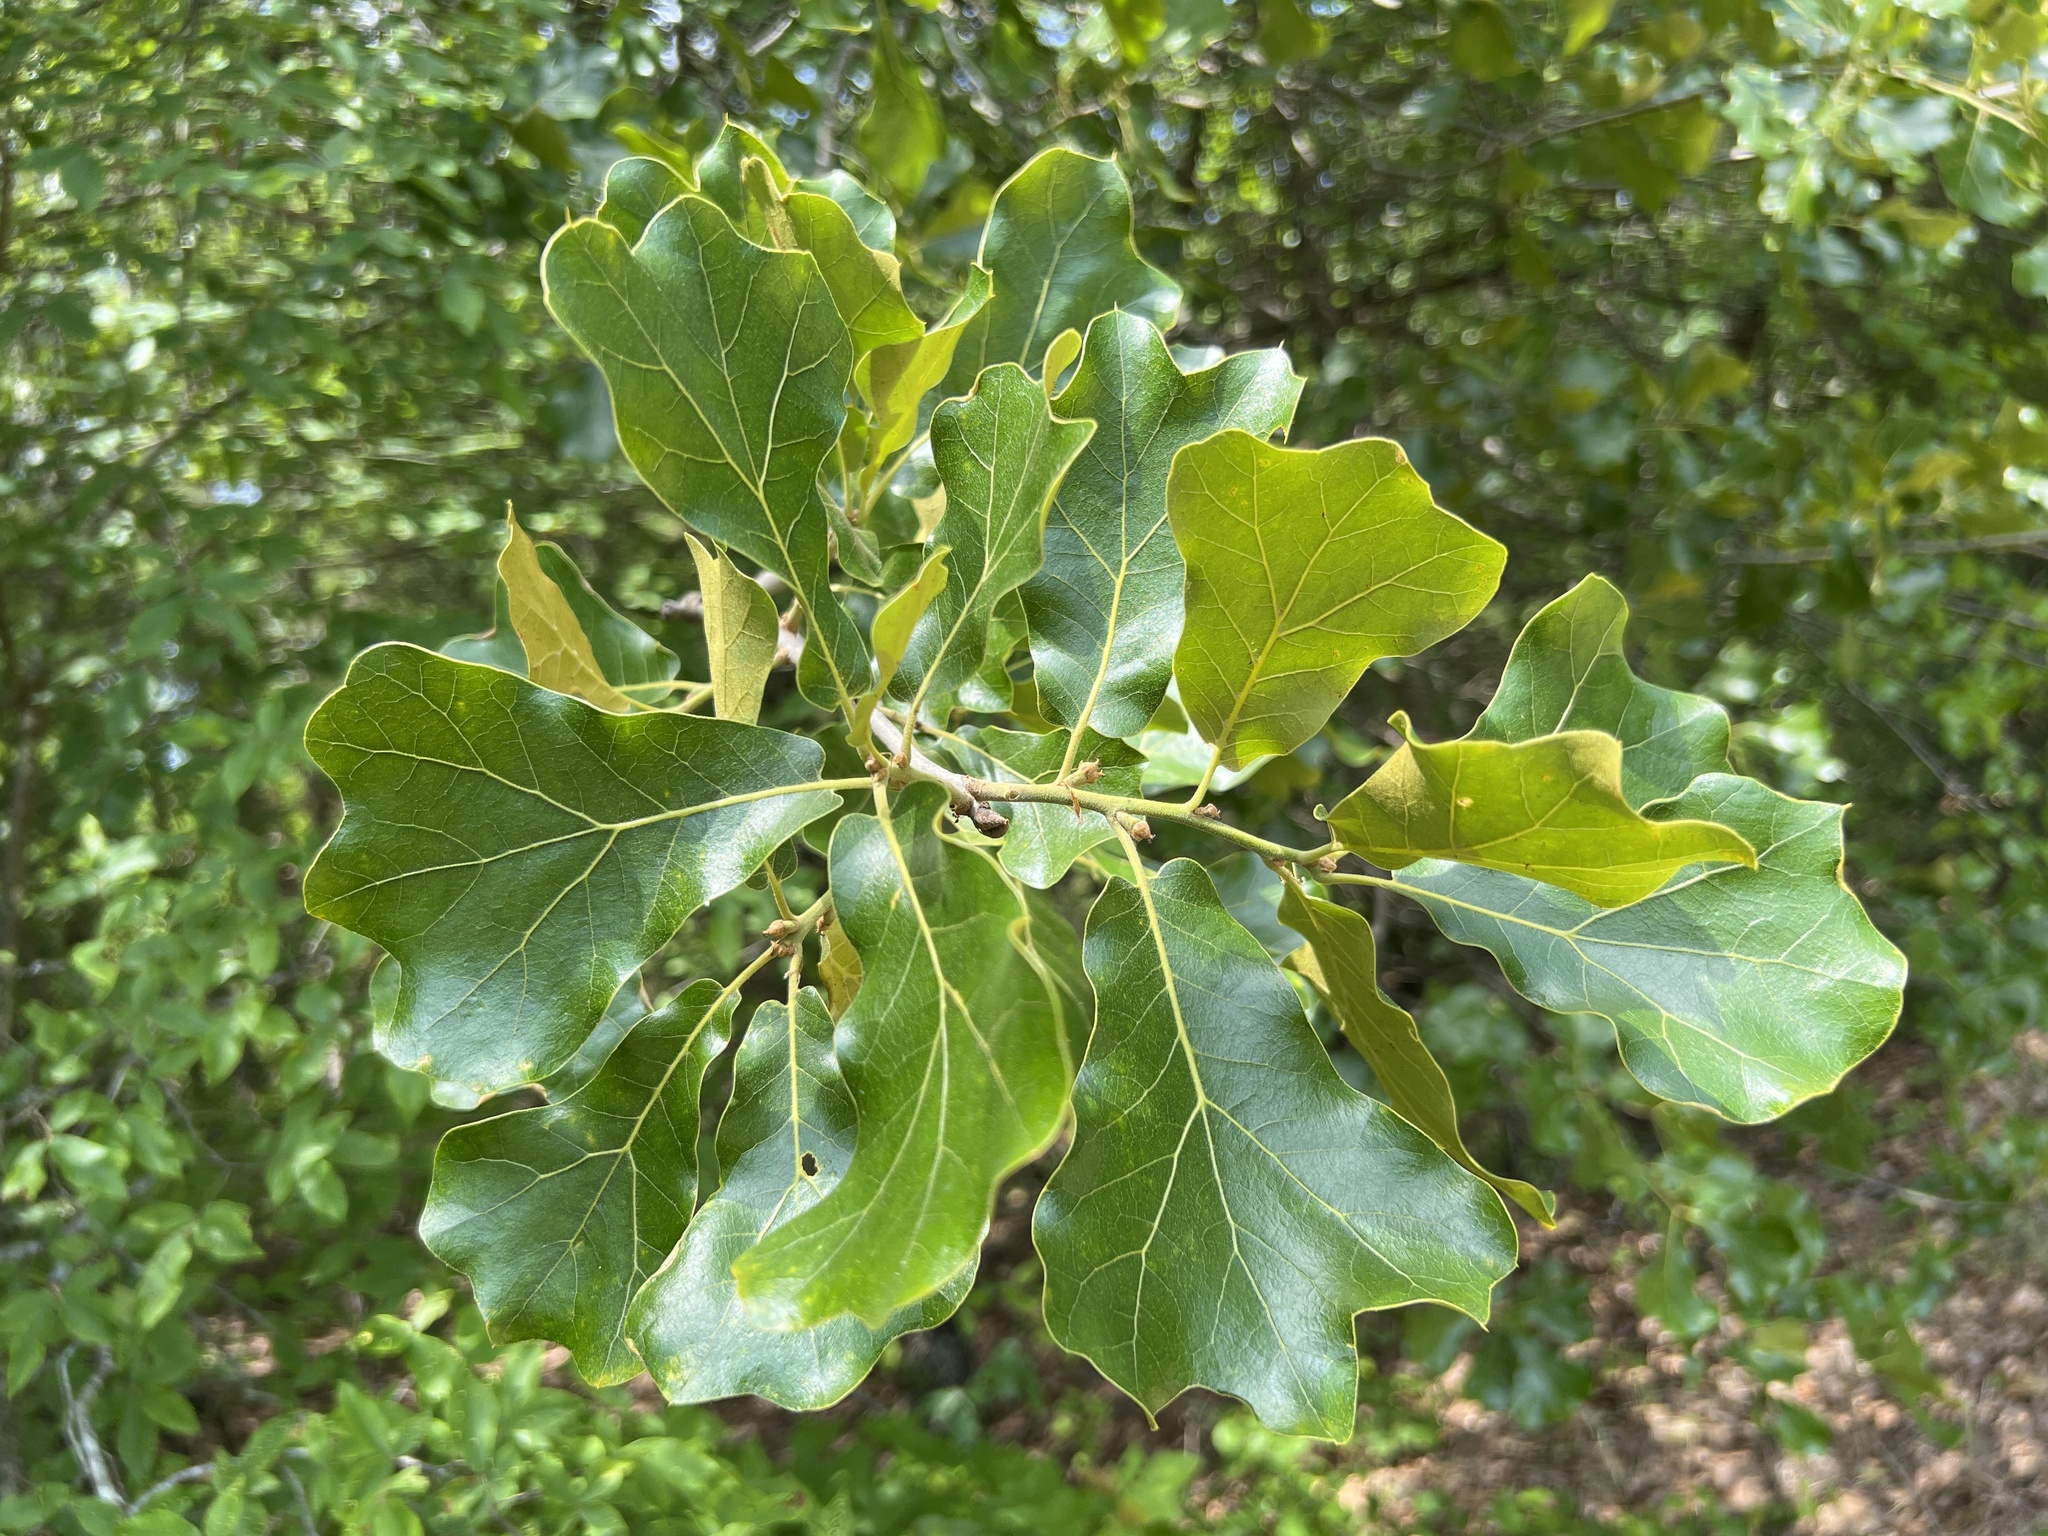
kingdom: Plantae
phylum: Tracheophyta
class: Magnoliopsida
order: Fagales
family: Fagaceae
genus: Quercus
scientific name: Quercus marilandica
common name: Blackjack oak
